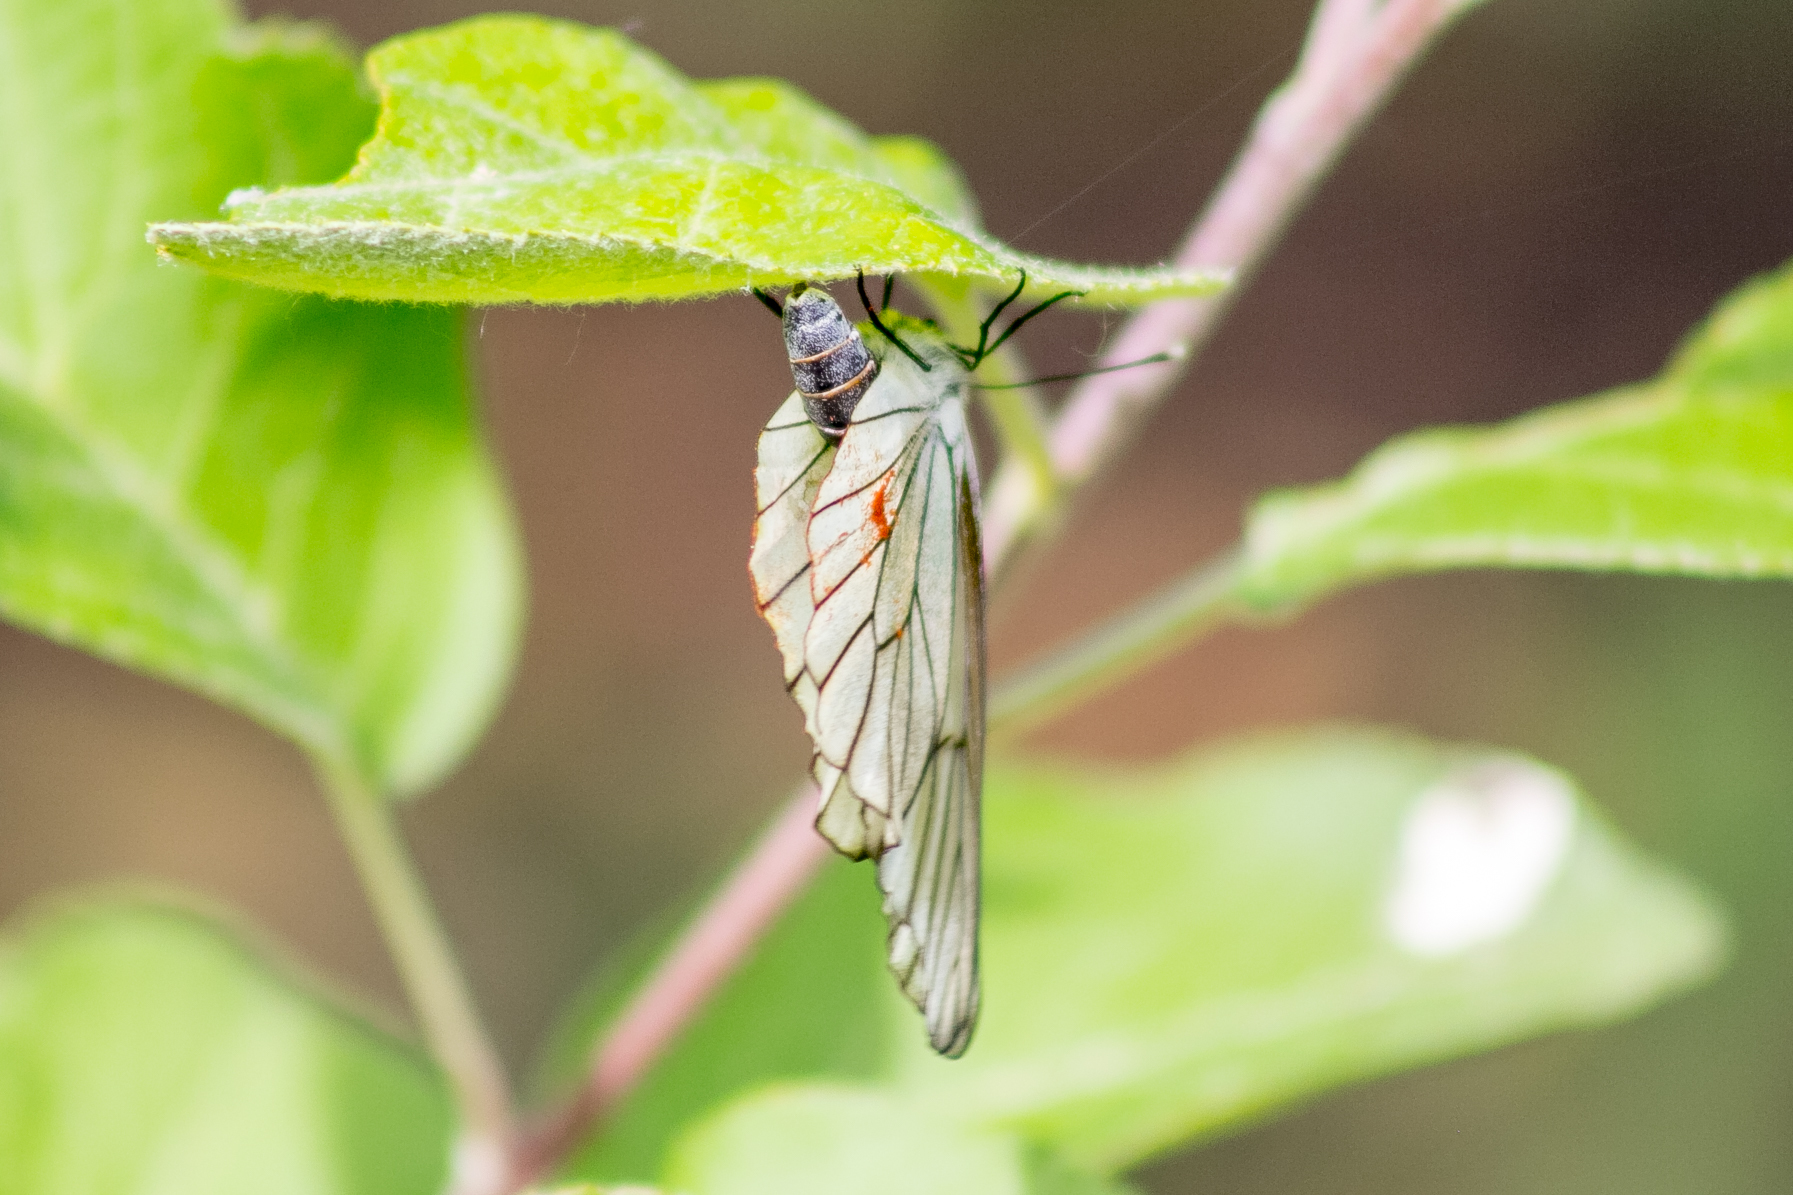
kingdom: Animalia
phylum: Arthropoda
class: Insecta
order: Lepidoptera
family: Pieridae
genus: Aporia
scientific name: Aporia crataegi
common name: Black-veined white
